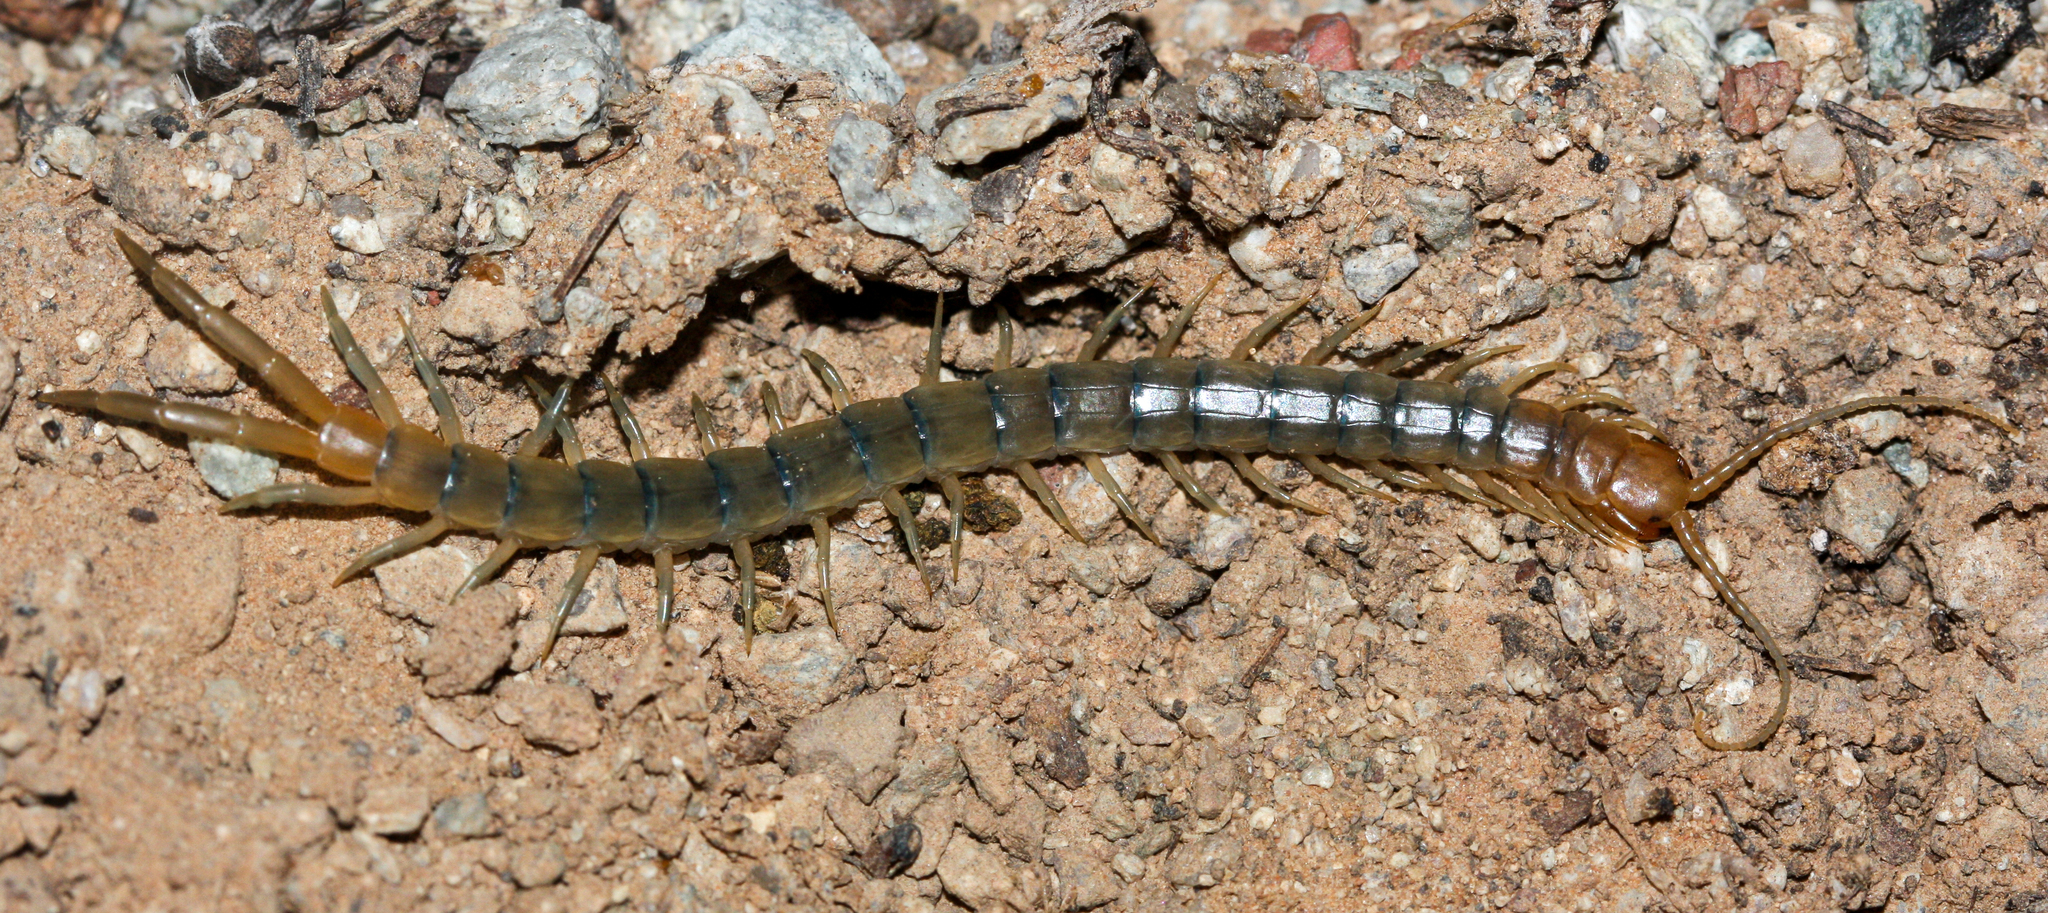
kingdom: Animalia
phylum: Arthropoda
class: Chilopoda
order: Scolopendromorpha
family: Scolopendridae
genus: Scolopendra
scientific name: Scolopendra polymorpha
